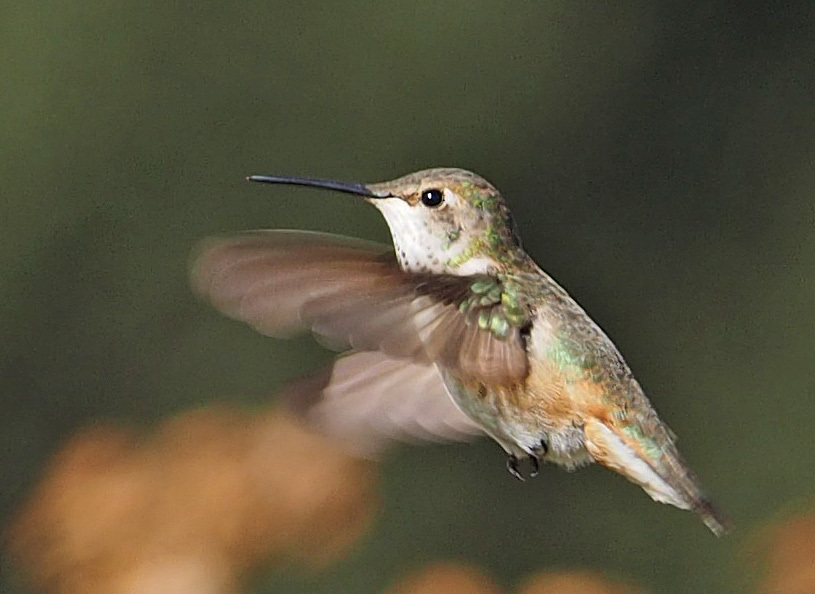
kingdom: Animalia
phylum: Chordata
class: Aves
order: Apodiformes
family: Trochilidae
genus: Selasphorus
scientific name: Selasphorus rufus
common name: Rufous hummingbird
